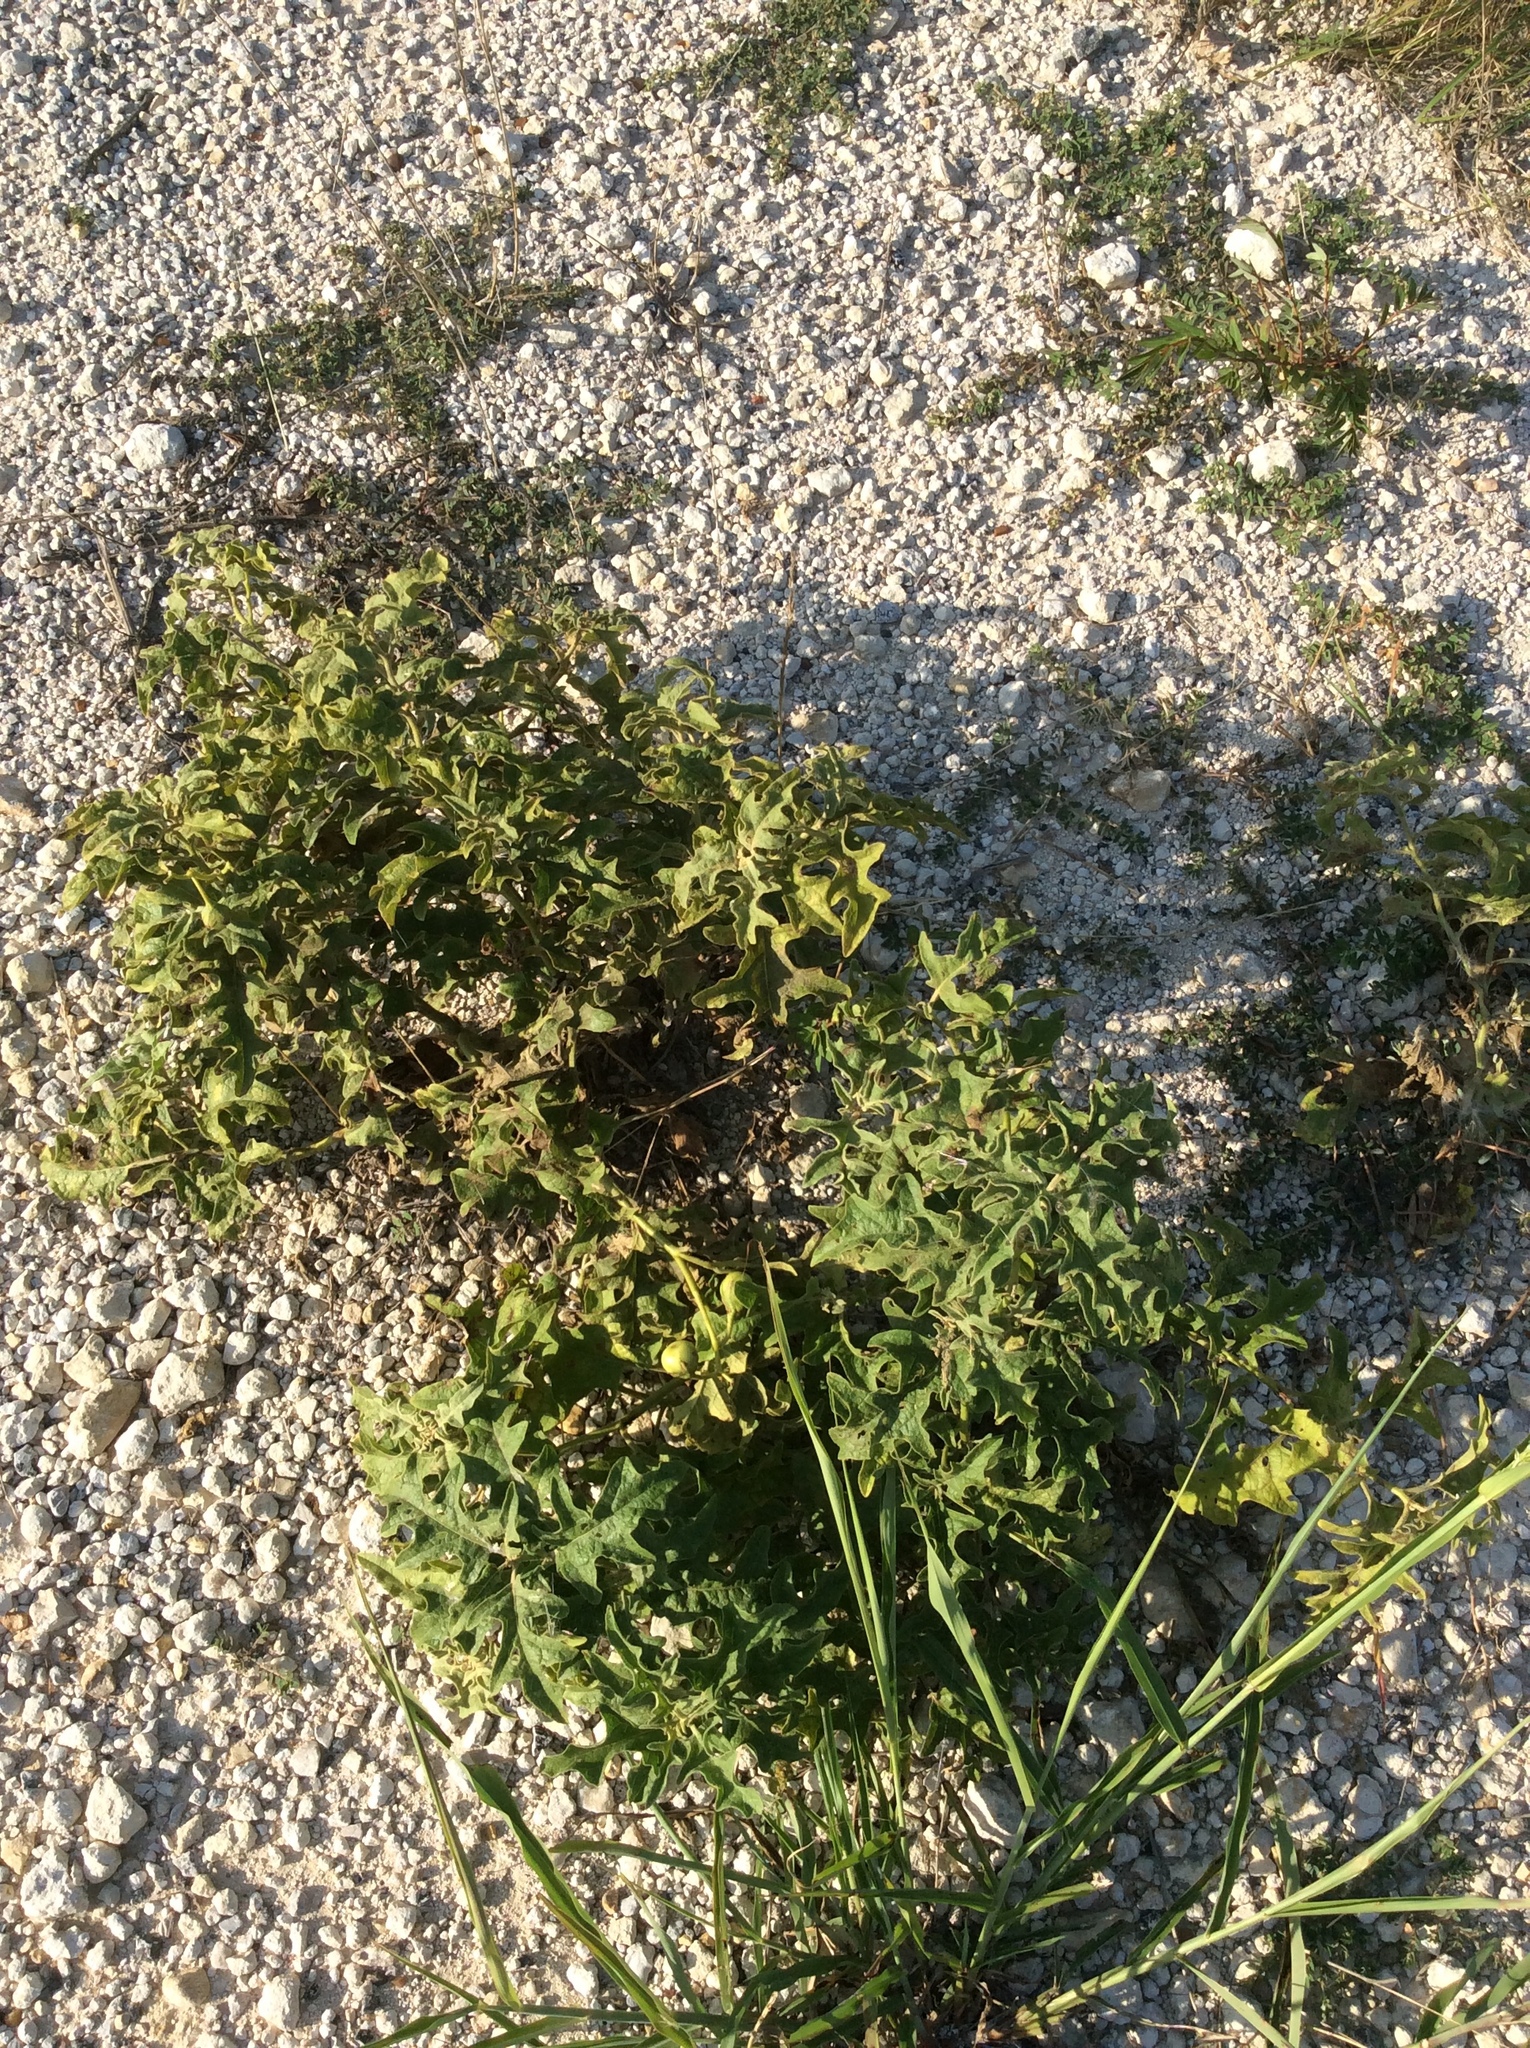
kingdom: Plantae
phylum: Tracheophyta
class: Magnoliopsida
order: Solanales
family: Solanaceae
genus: Solanum
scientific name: Solanum elaeagnifolium
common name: Silverleaf nightshade
